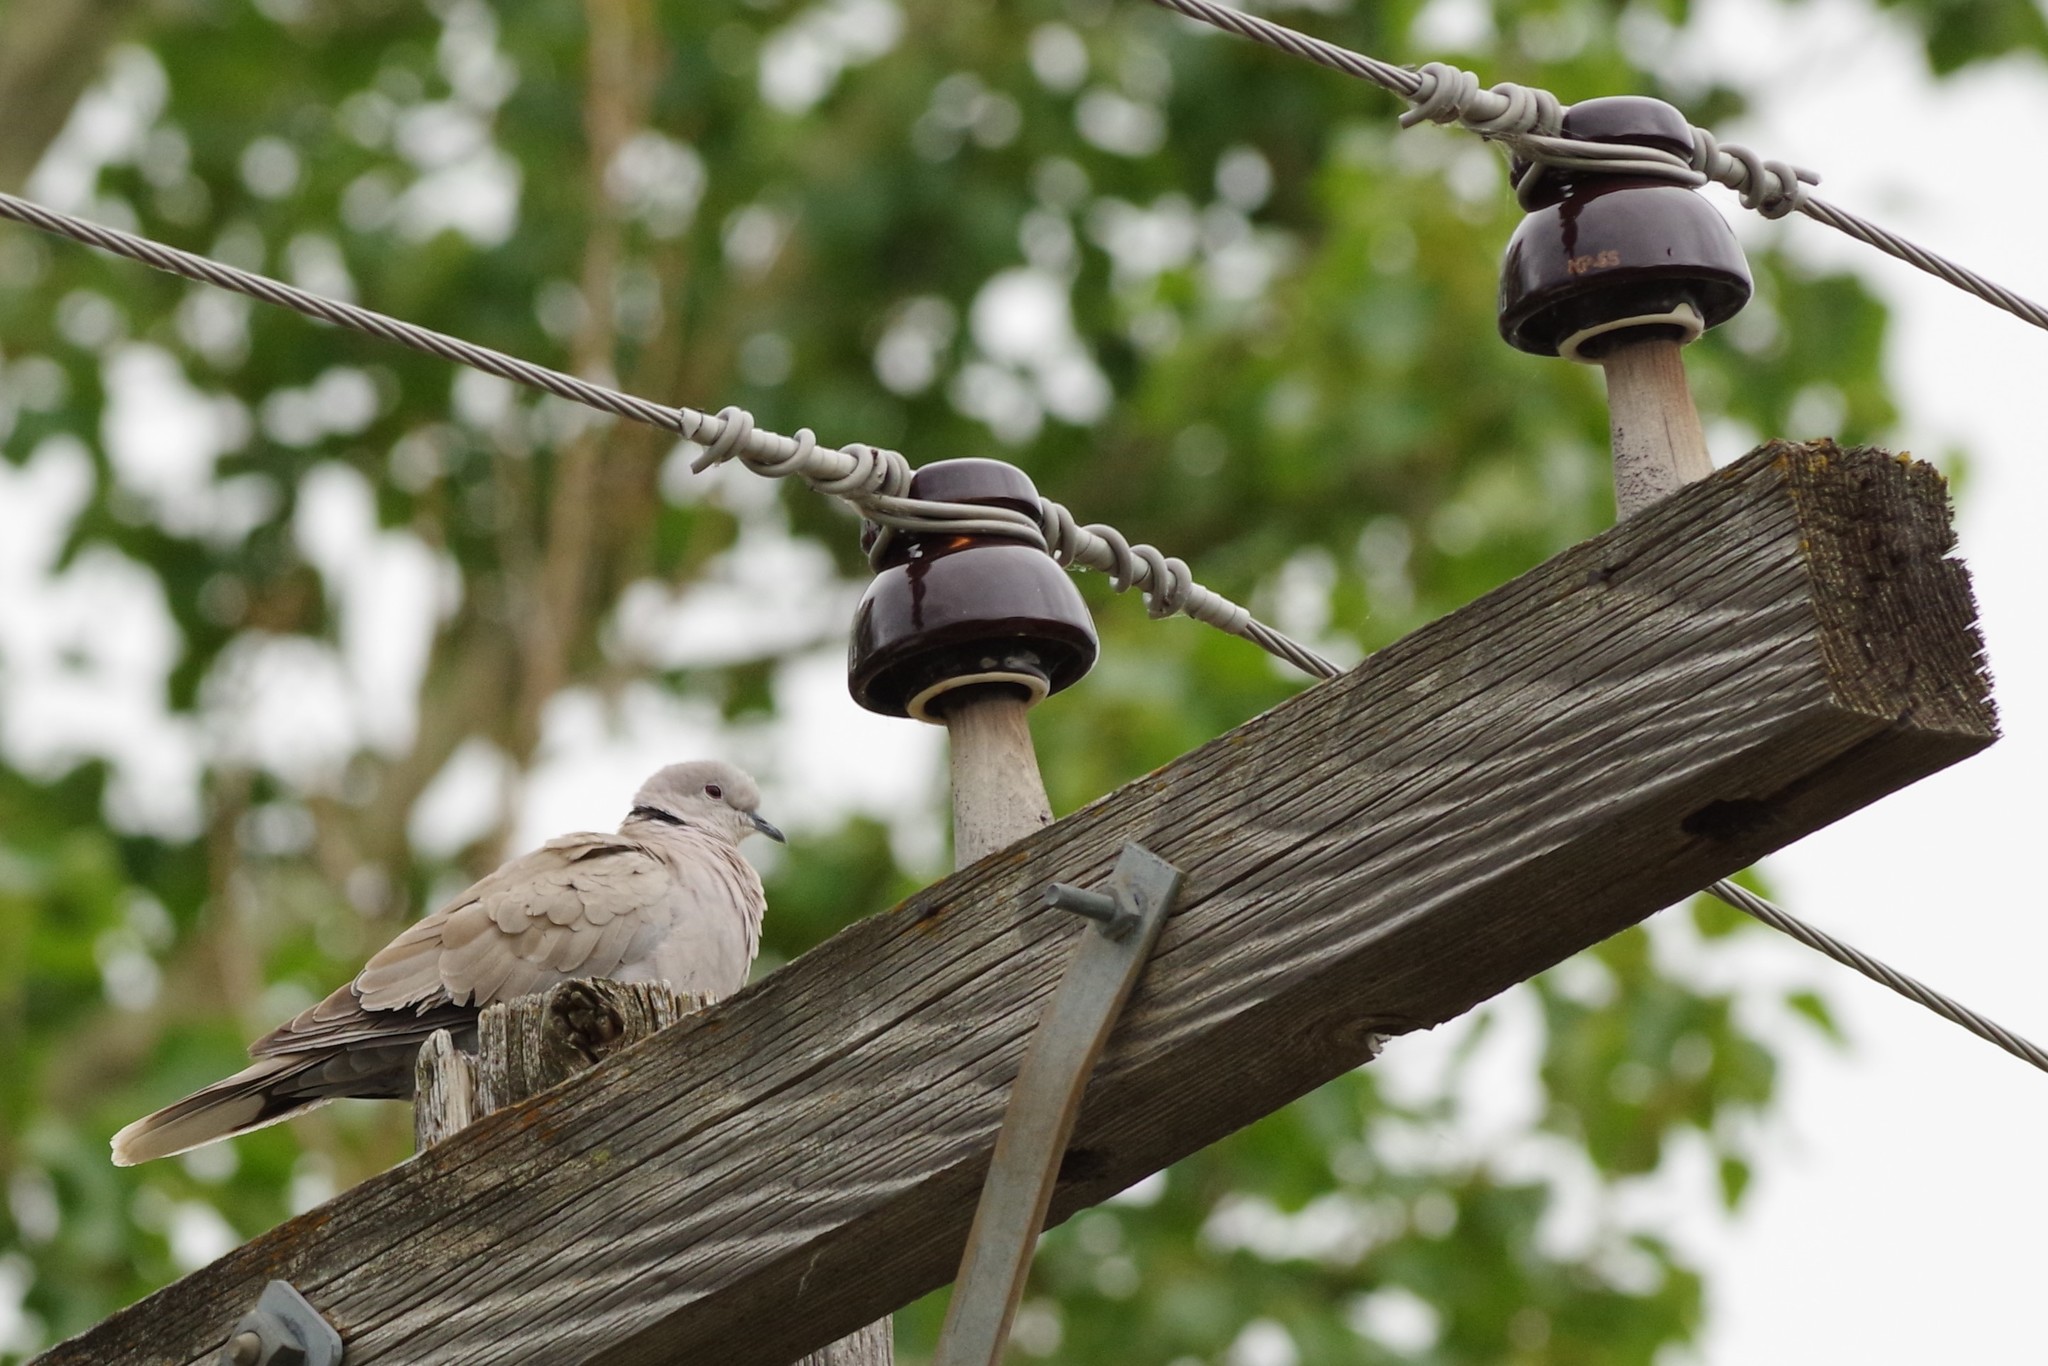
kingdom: Animalia
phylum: Chordata
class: Aves
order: Columbiformes
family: Columbidae
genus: Streptopelia
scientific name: Streptopelia decaocto
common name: Eurasian collared dove
